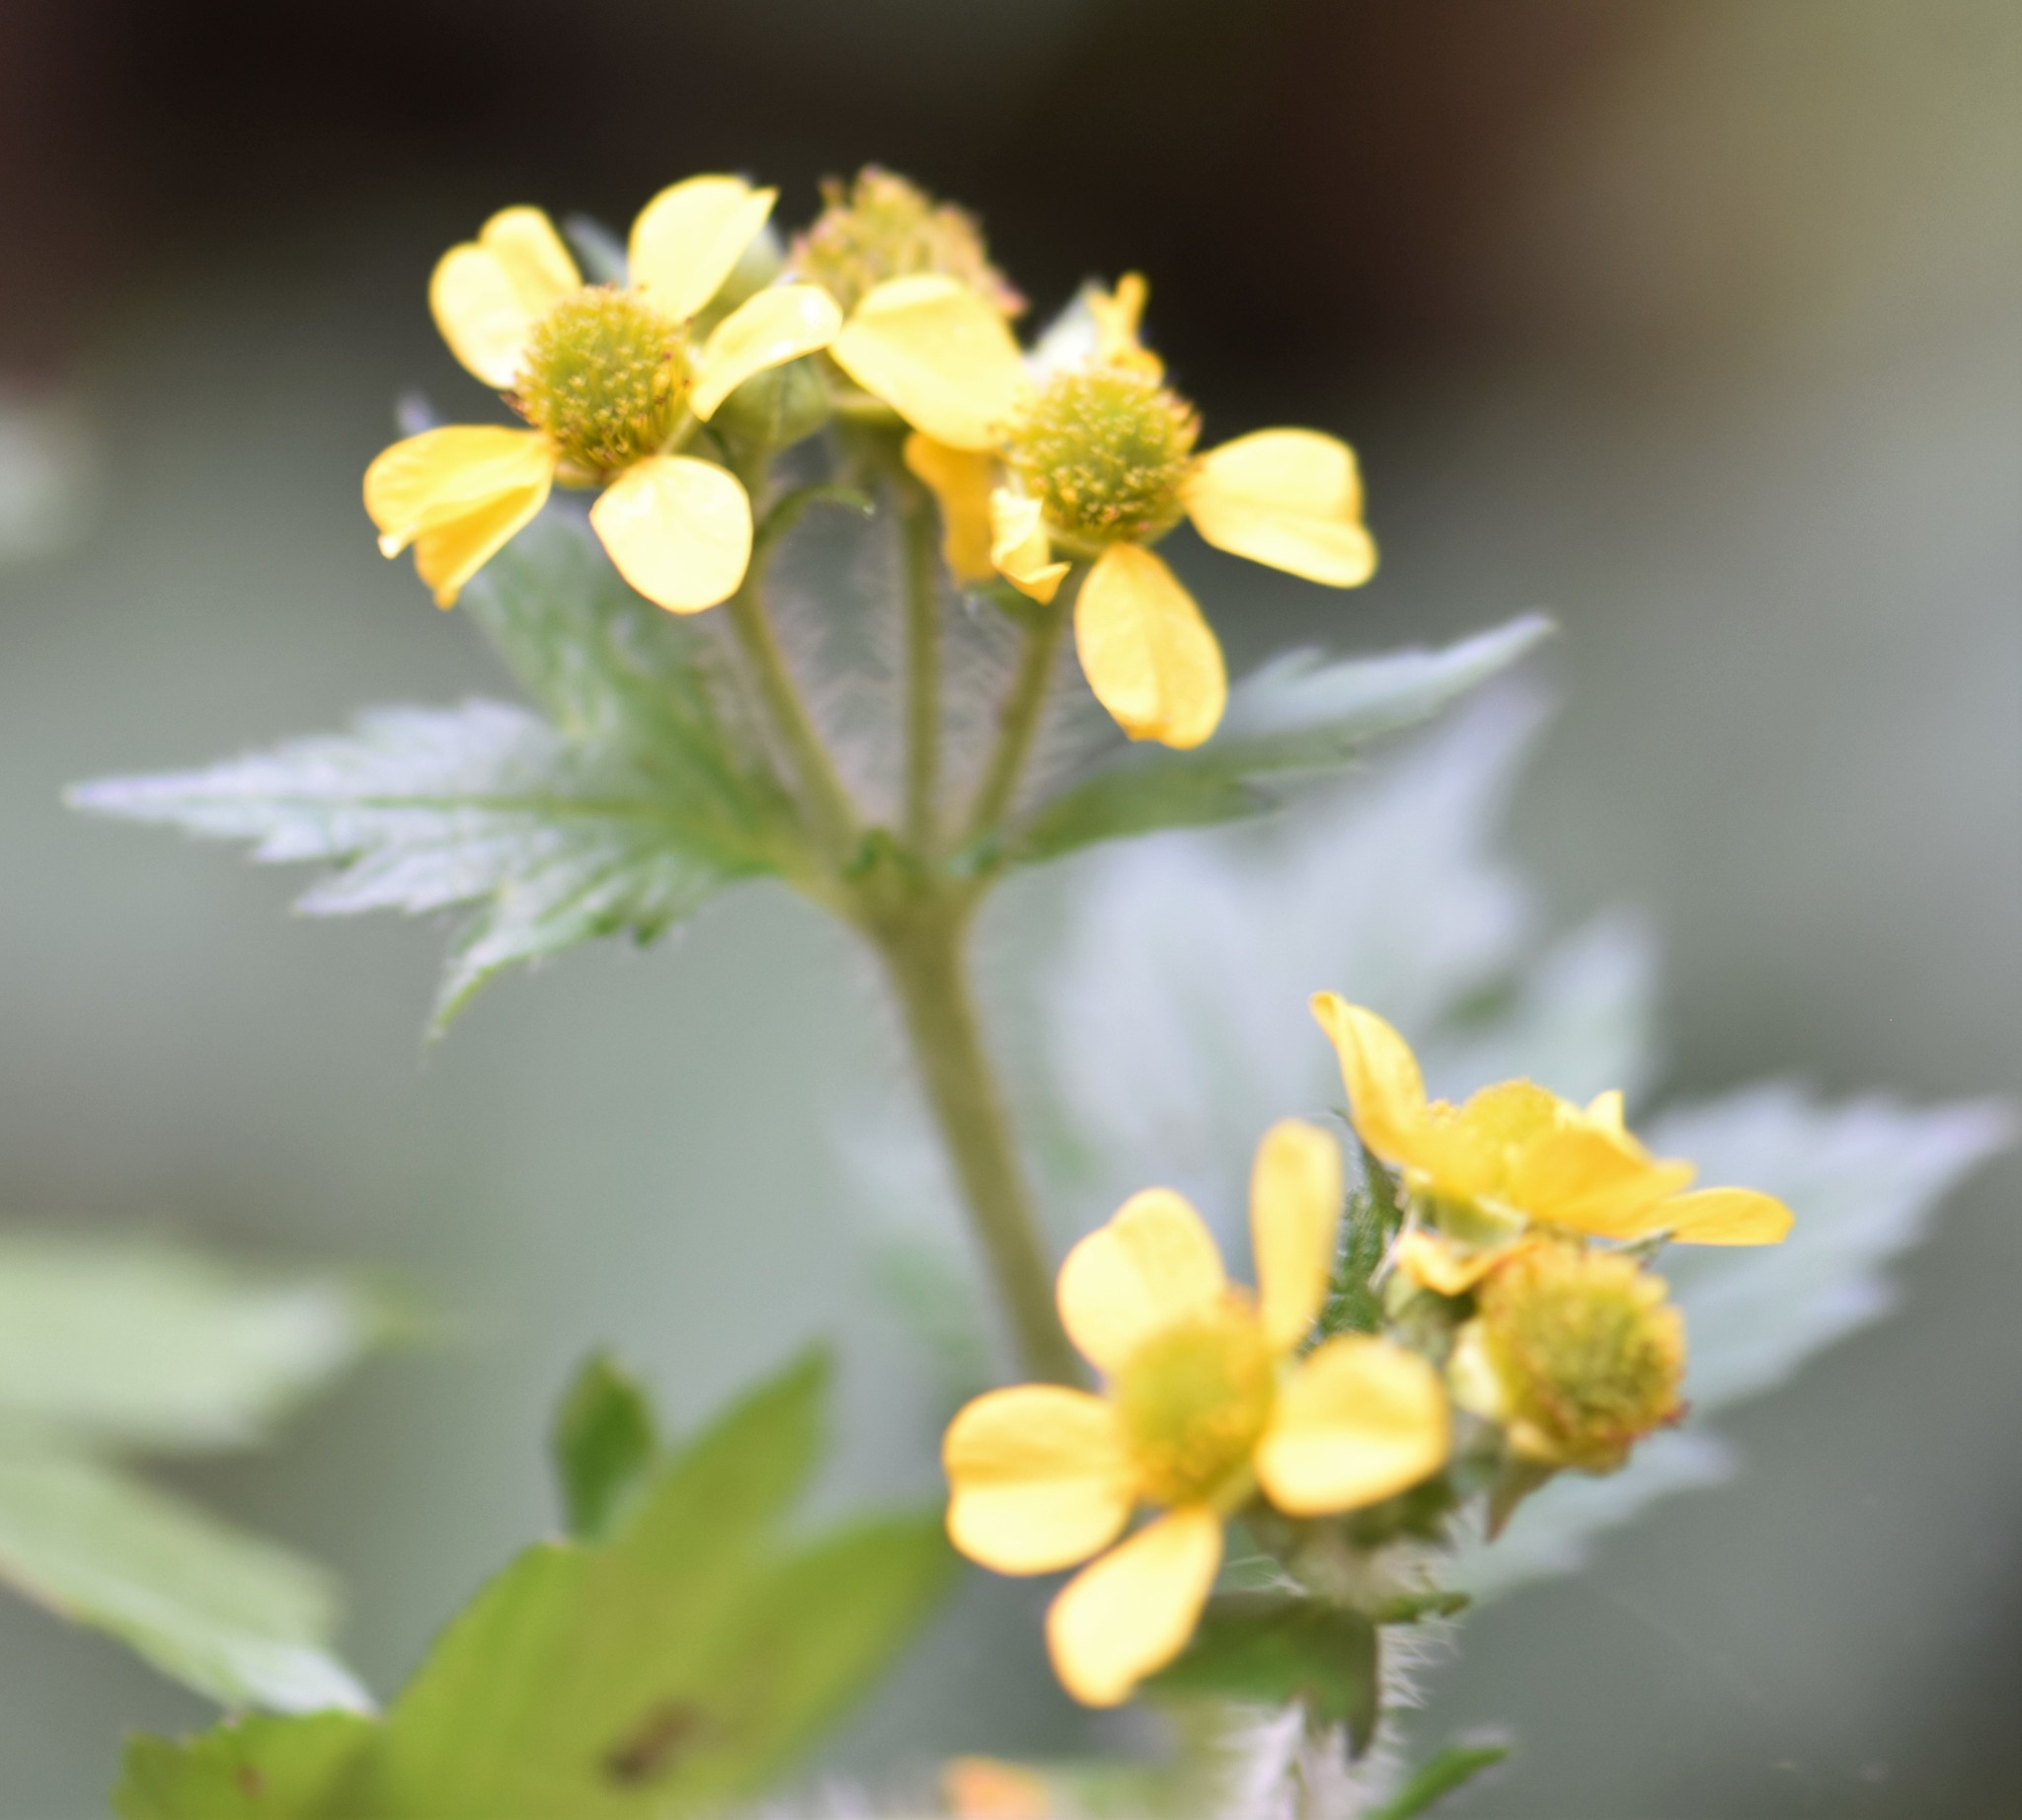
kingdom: Plantae
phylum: Tracheophyta
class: Magnoliopsida
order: Rosales
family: Rosaceae
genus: Geum
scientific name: Geum macrophyllum
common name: Large-leaved avens
